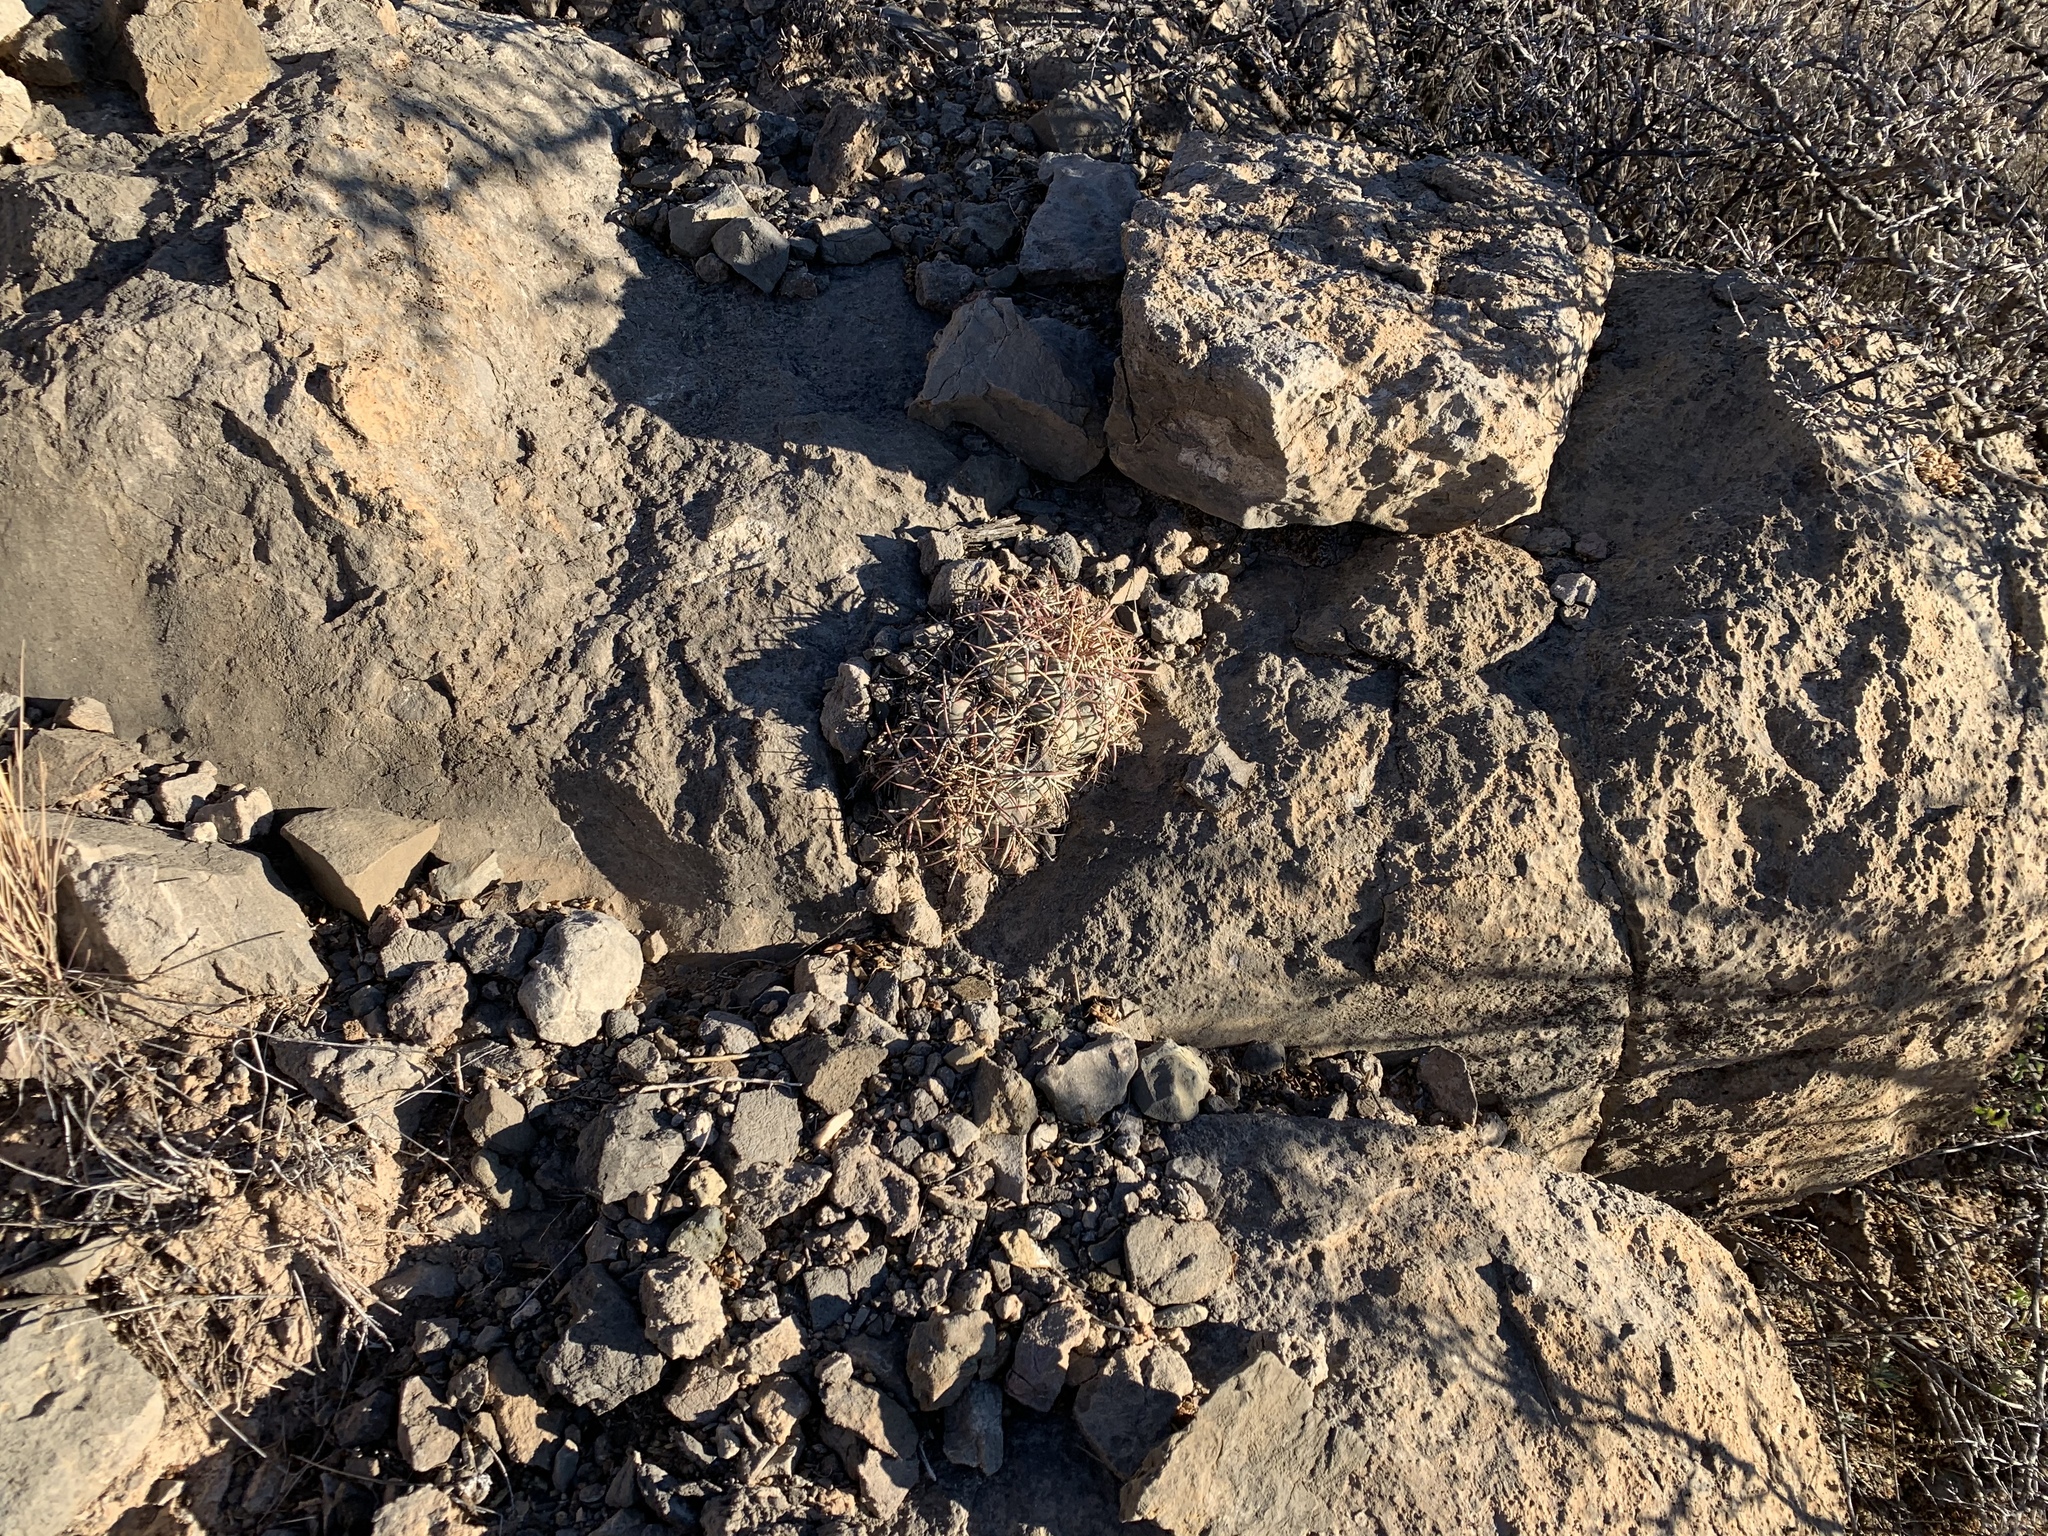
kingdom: Plantae
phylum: Tracheophyta
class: Magnoliopsida
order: Caryophyllales
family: Cactaceae
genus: Echinocactus
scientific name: Echinocactus horizonthalonius
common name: Devilshead
